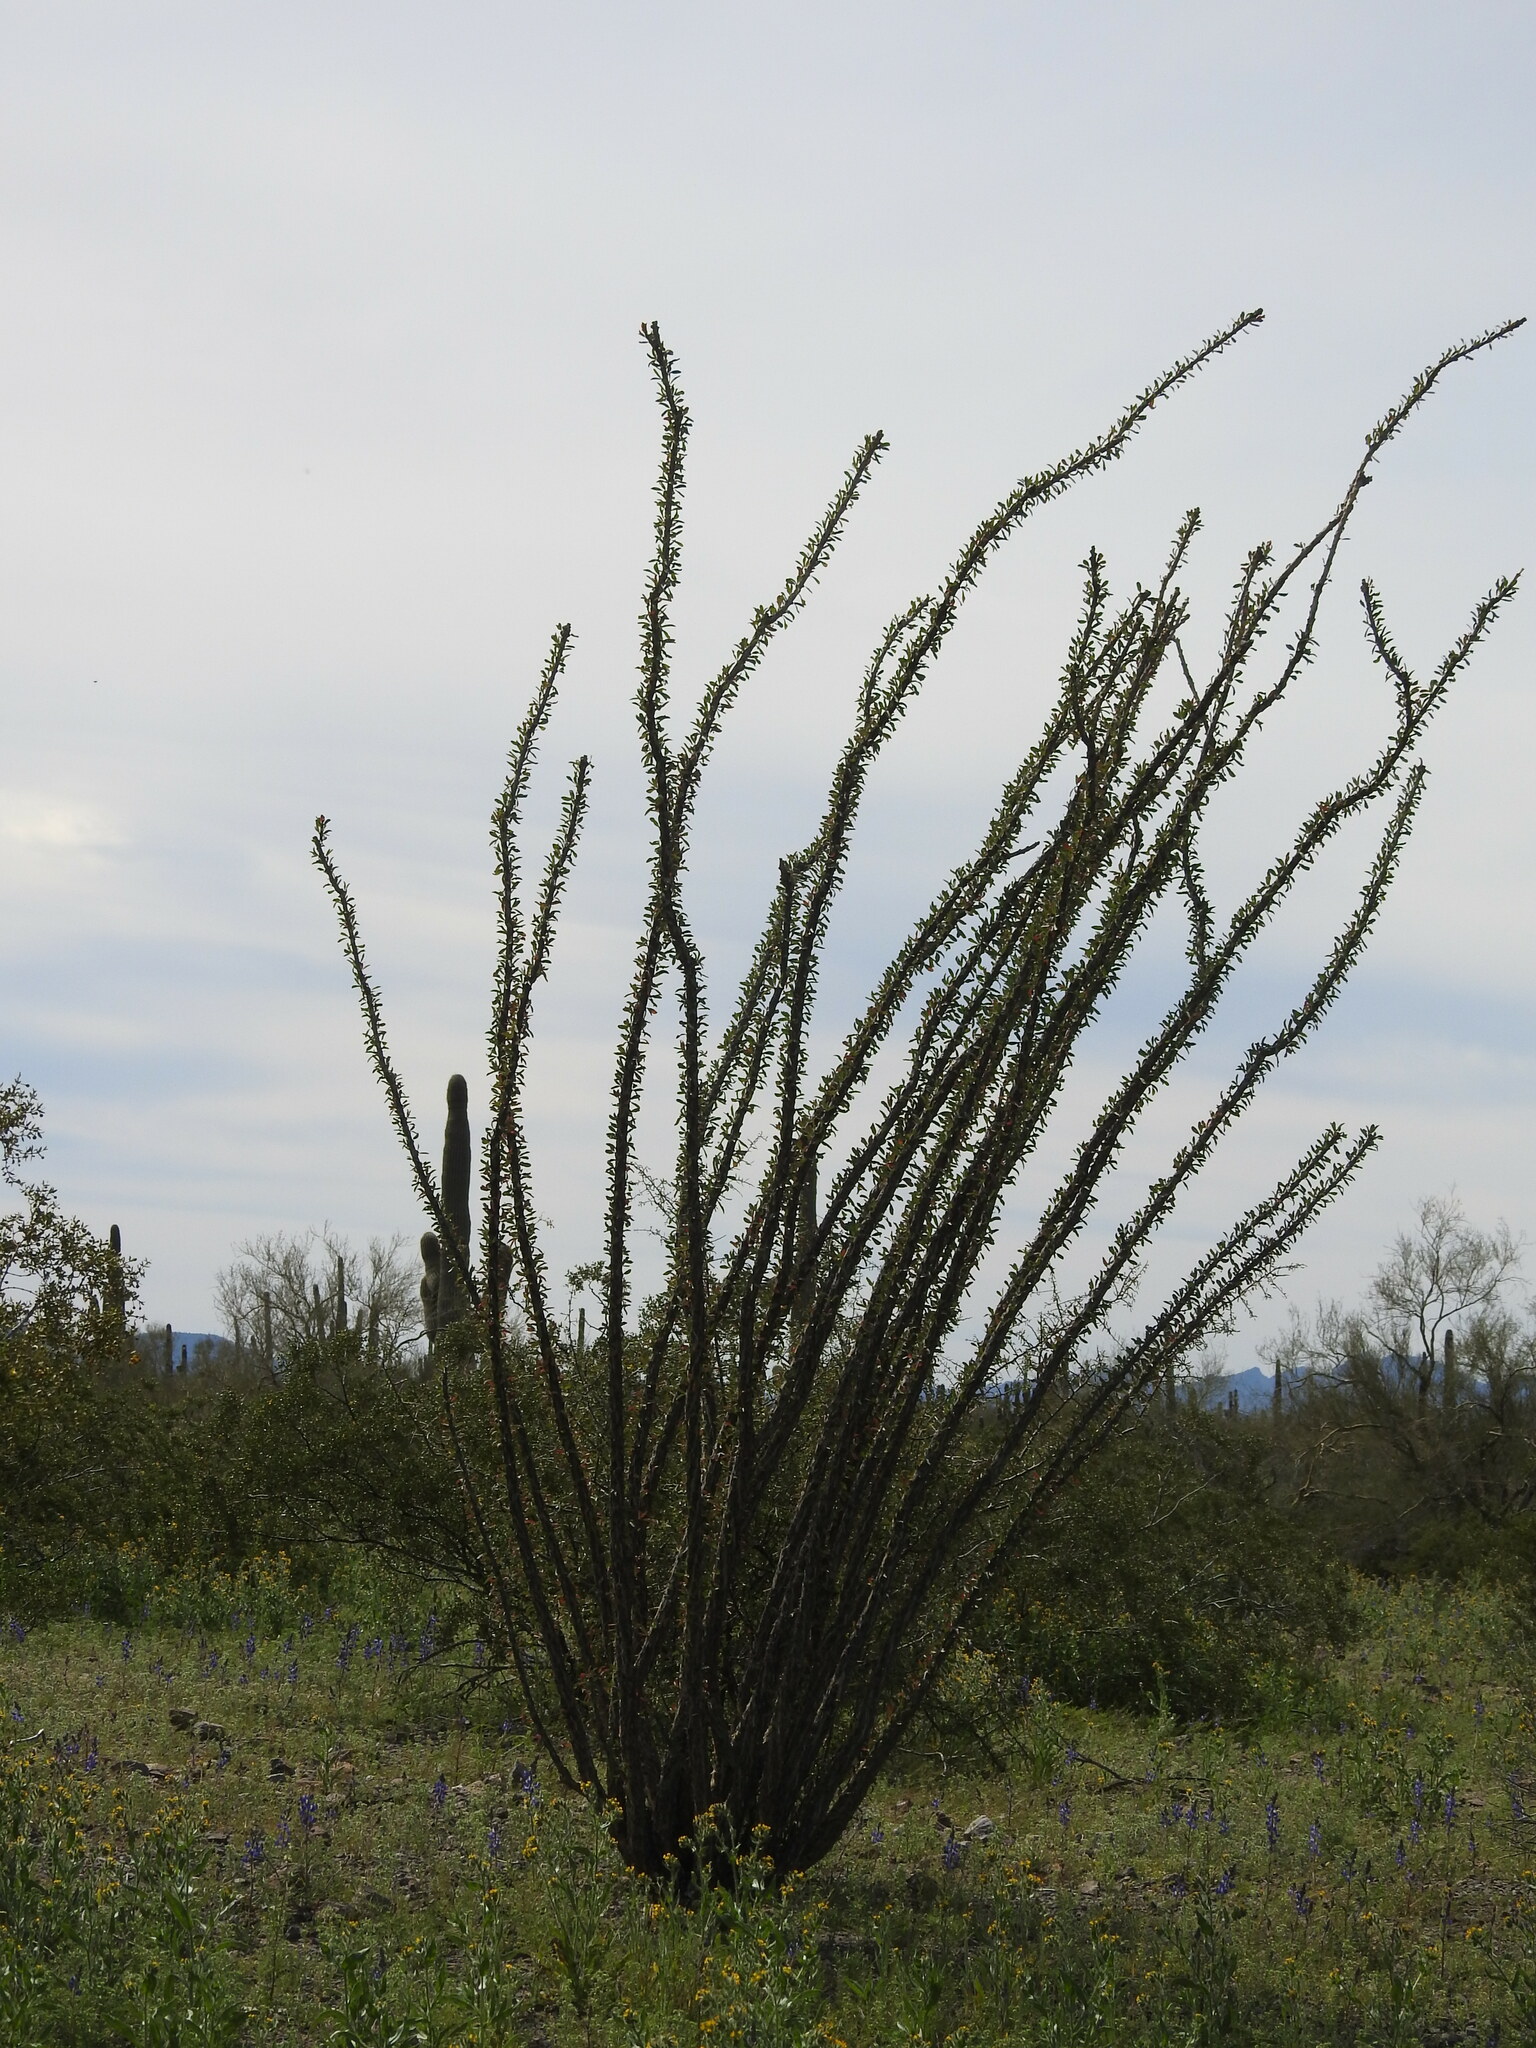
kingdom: Plantae
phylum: Tracheophyta
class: Magnoliopsida
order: Ericales
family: Fouquieriaceae
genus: Fouquieria
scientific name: Fouquieria splendens
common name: Vine-cactus
